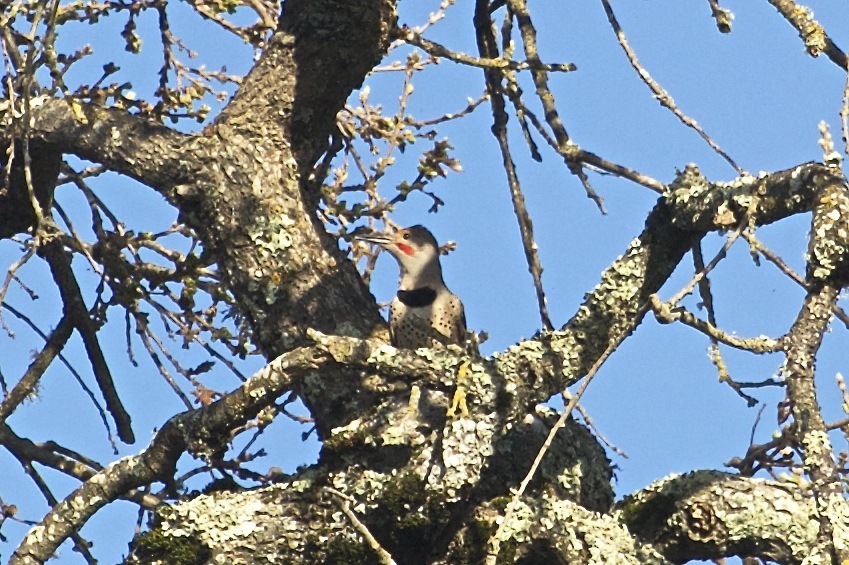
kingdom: Animalia
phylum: Chordata
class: Aves
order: Piciformes
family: Picidae
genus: Colaptes
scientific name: Colaptes auratus
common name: Northern flicker
